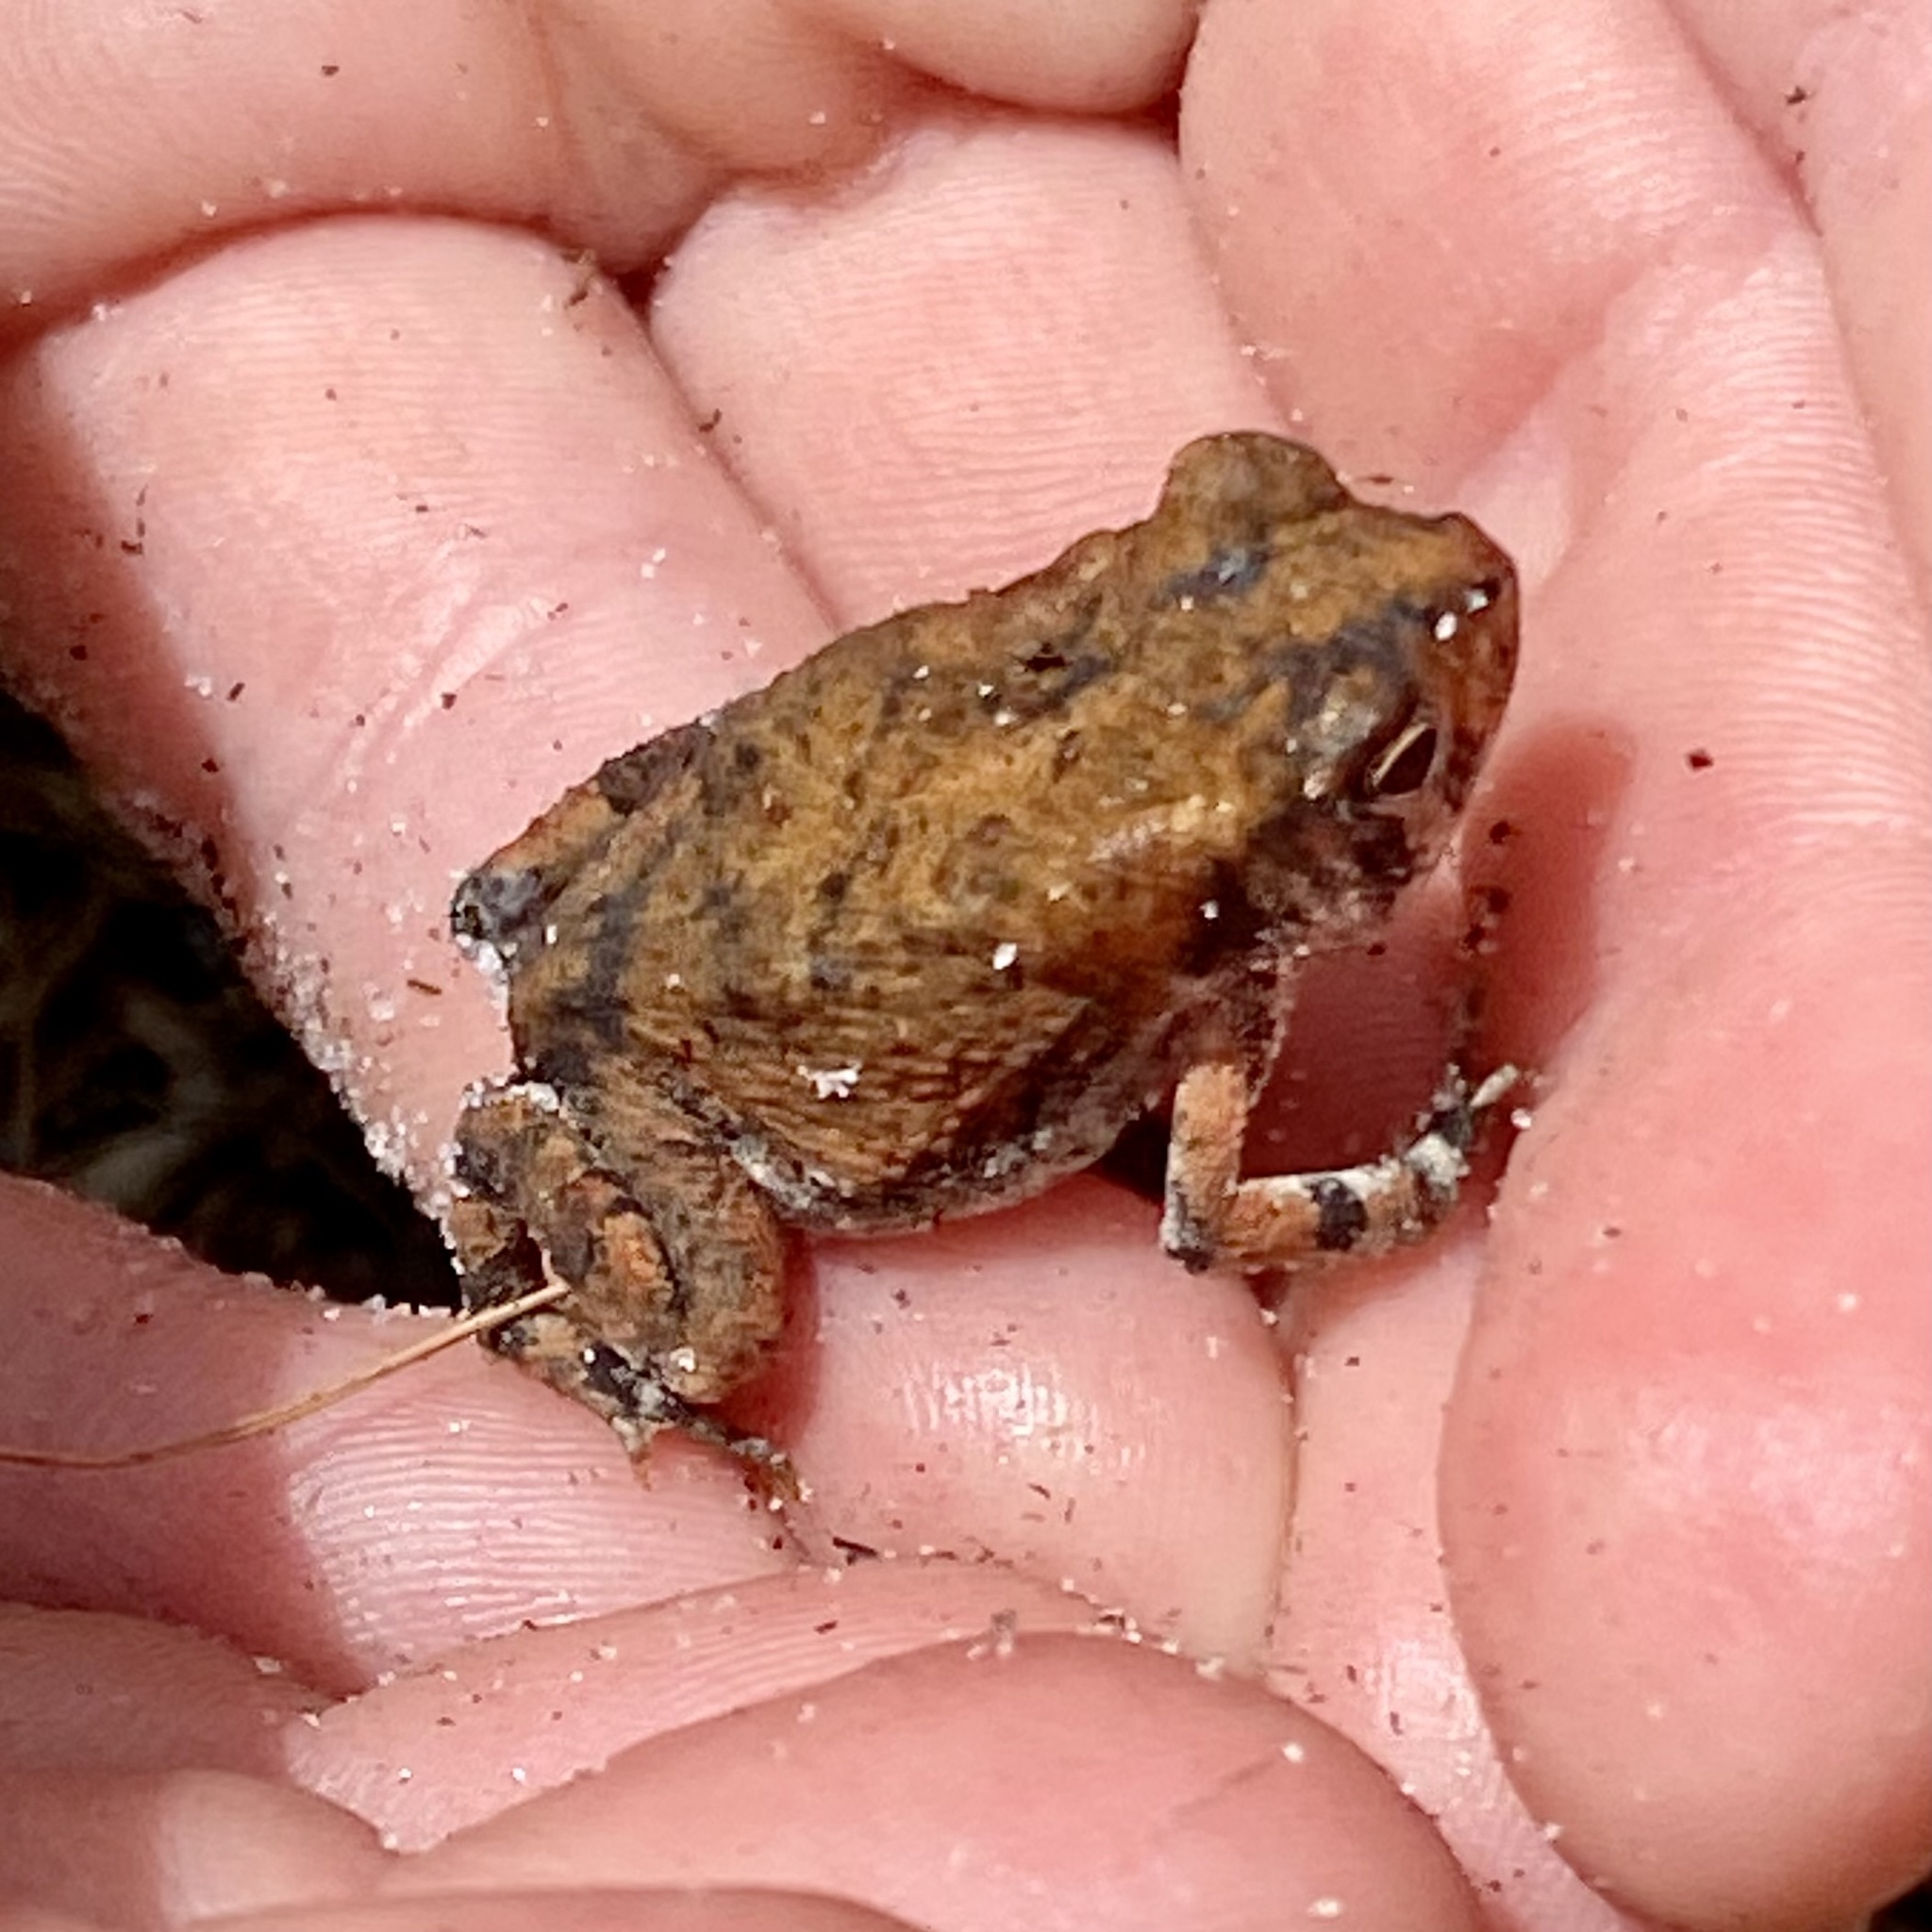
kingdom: Animalia
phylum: Chordata
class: Amphibia
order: Anura
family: Bufonidae
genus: Anaxyrus
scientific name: Anaxyrus terrestris
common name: Southern toad
